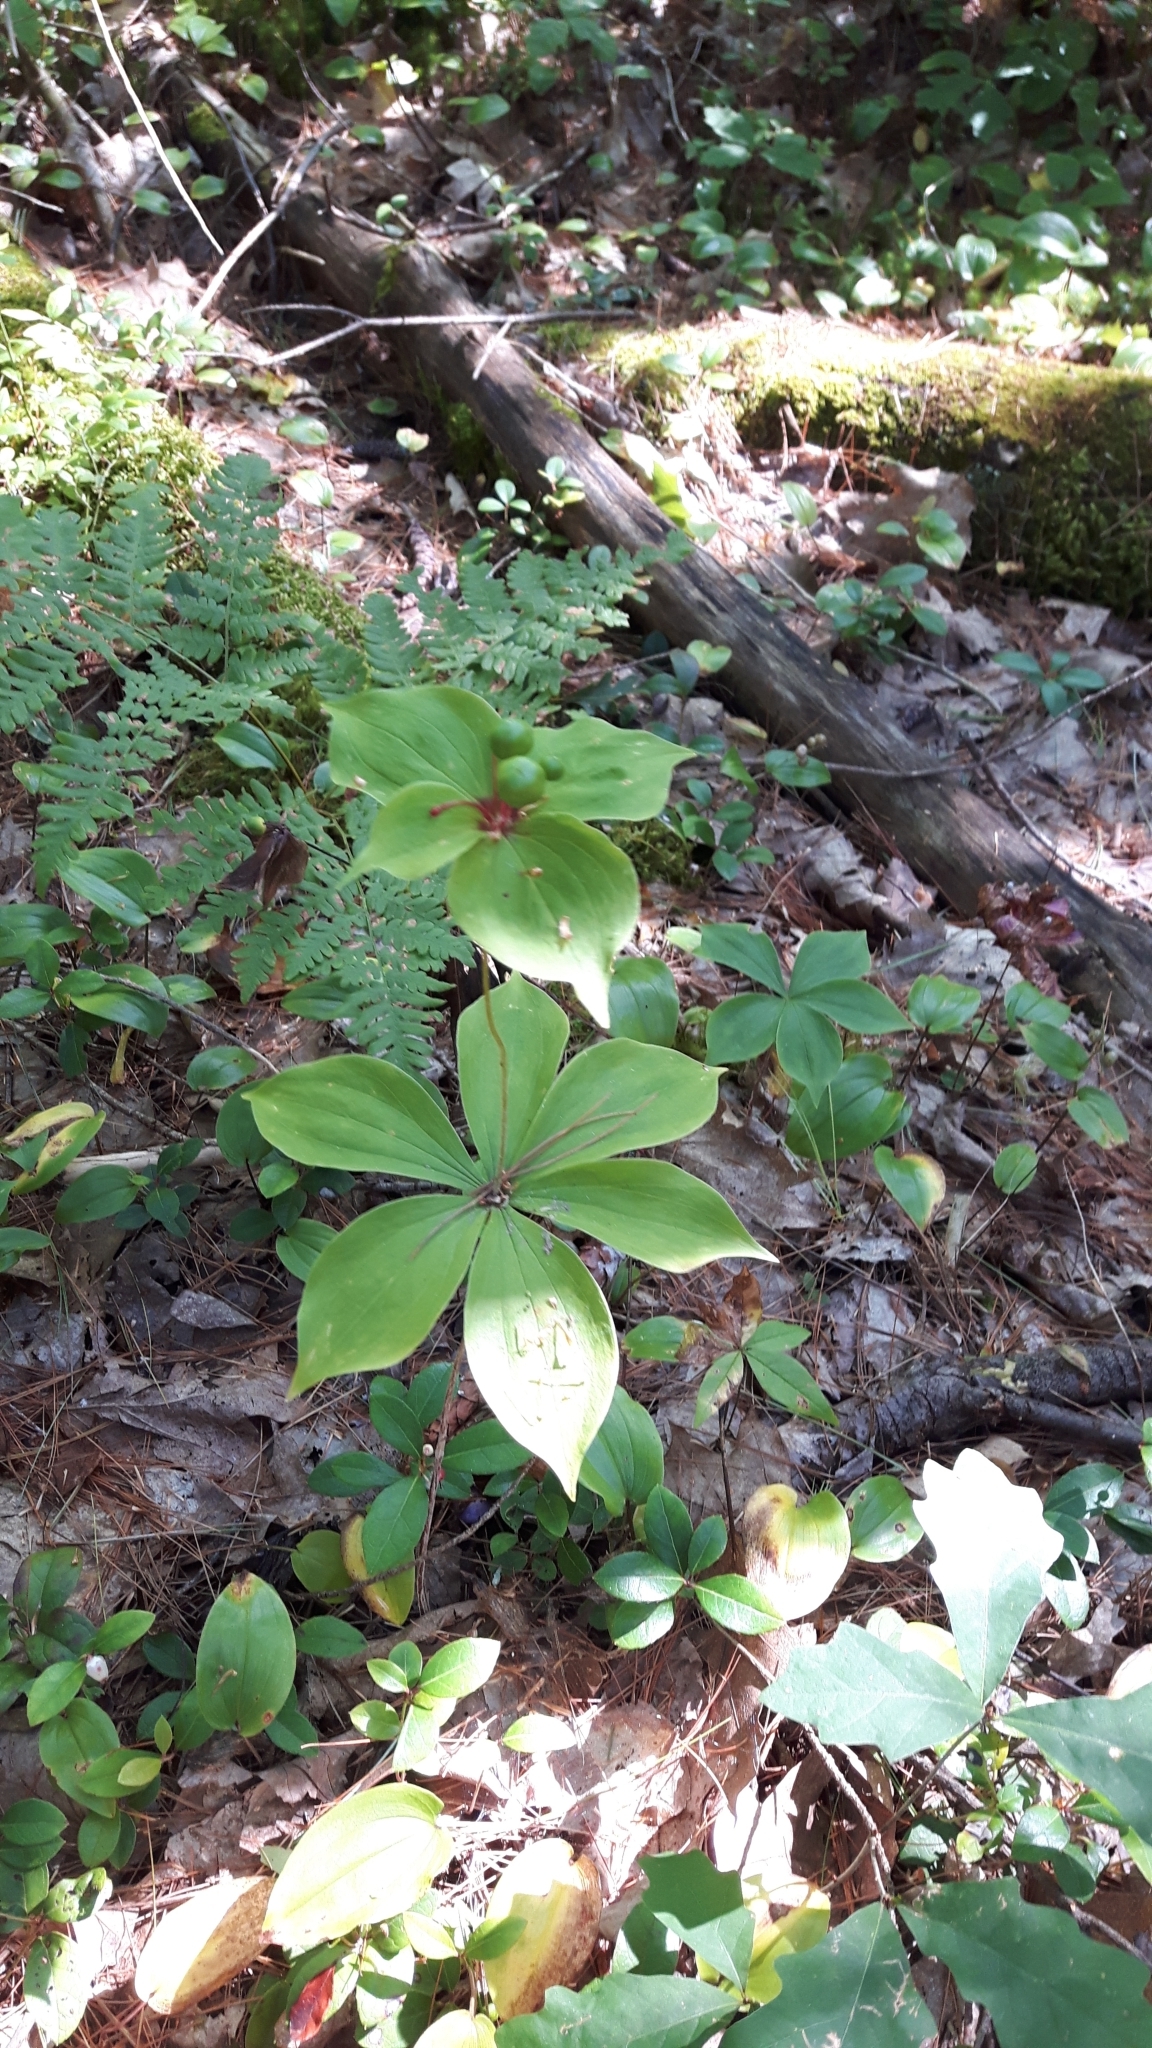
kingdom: Plantae
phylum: Tracheophyta
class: Liliopsida
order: Liliales
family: Liliaceae
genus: Medeola
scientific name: Medeola virginiana
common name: Indian cucumber-root
